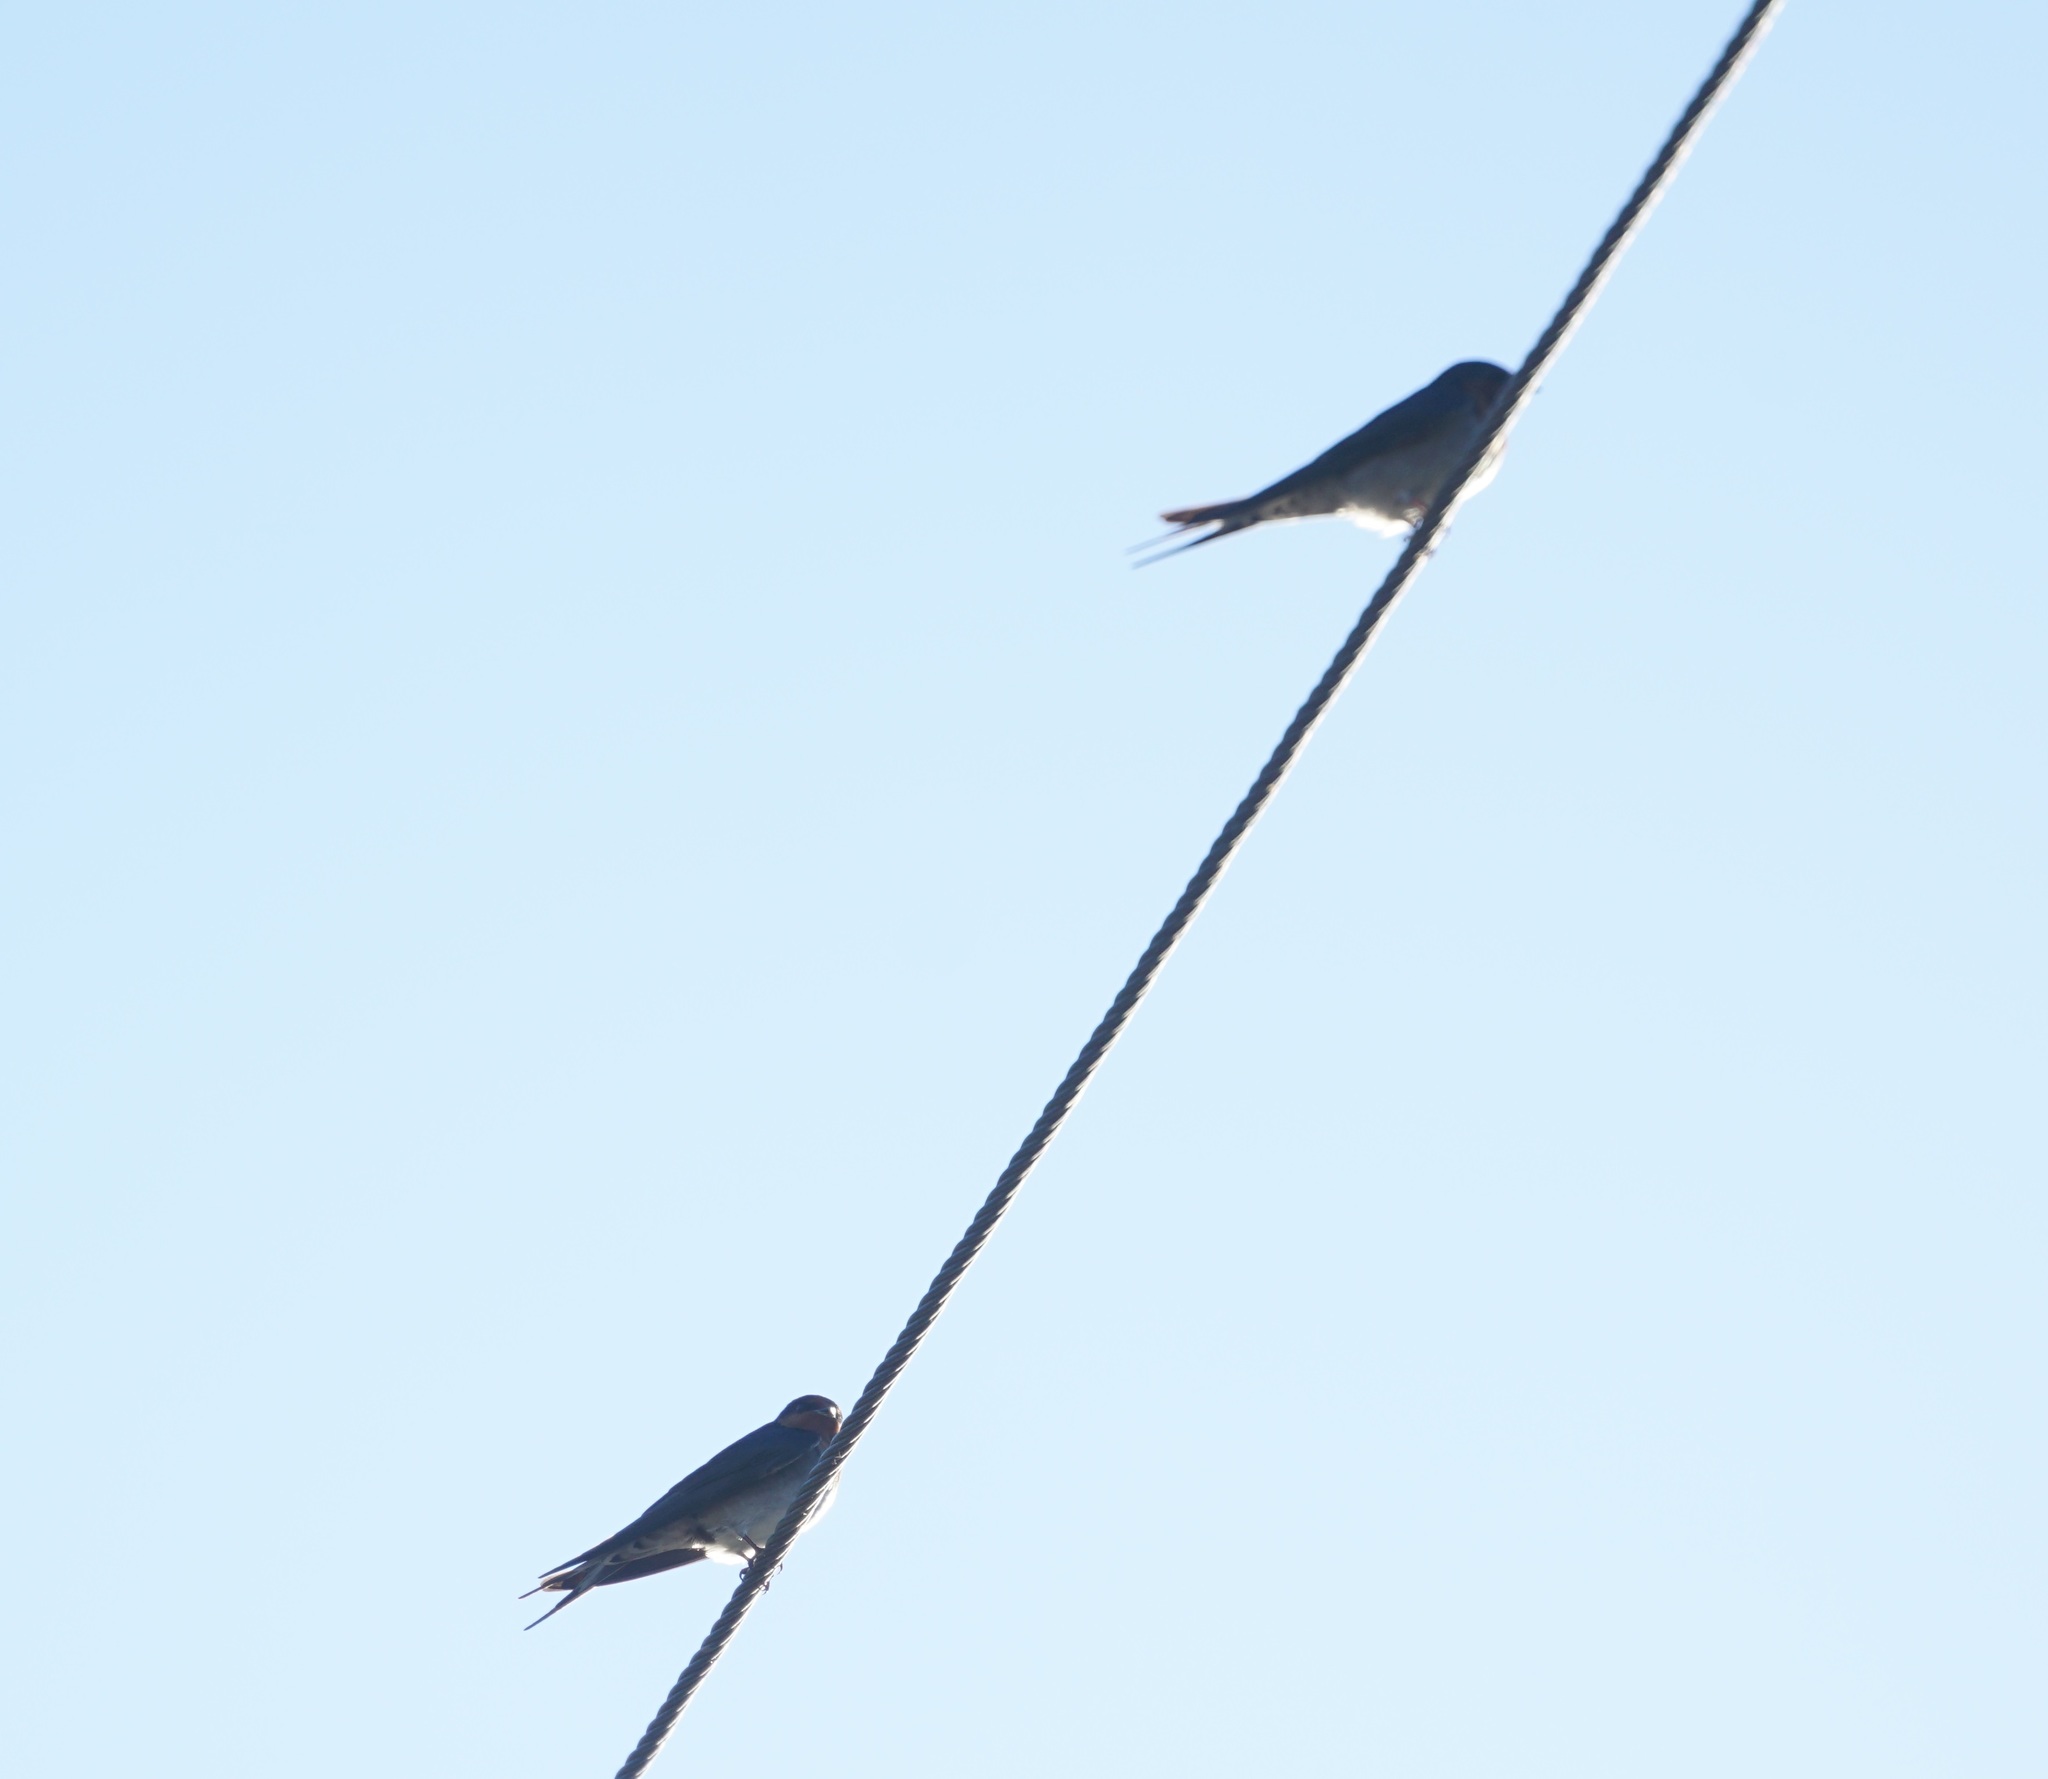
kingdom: Animalia
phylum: Chordata
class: Aves
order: Passeriformes
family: Hirundinidae
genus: Hirundo
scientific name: Hirundo neoxena
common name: Welcome swallow
